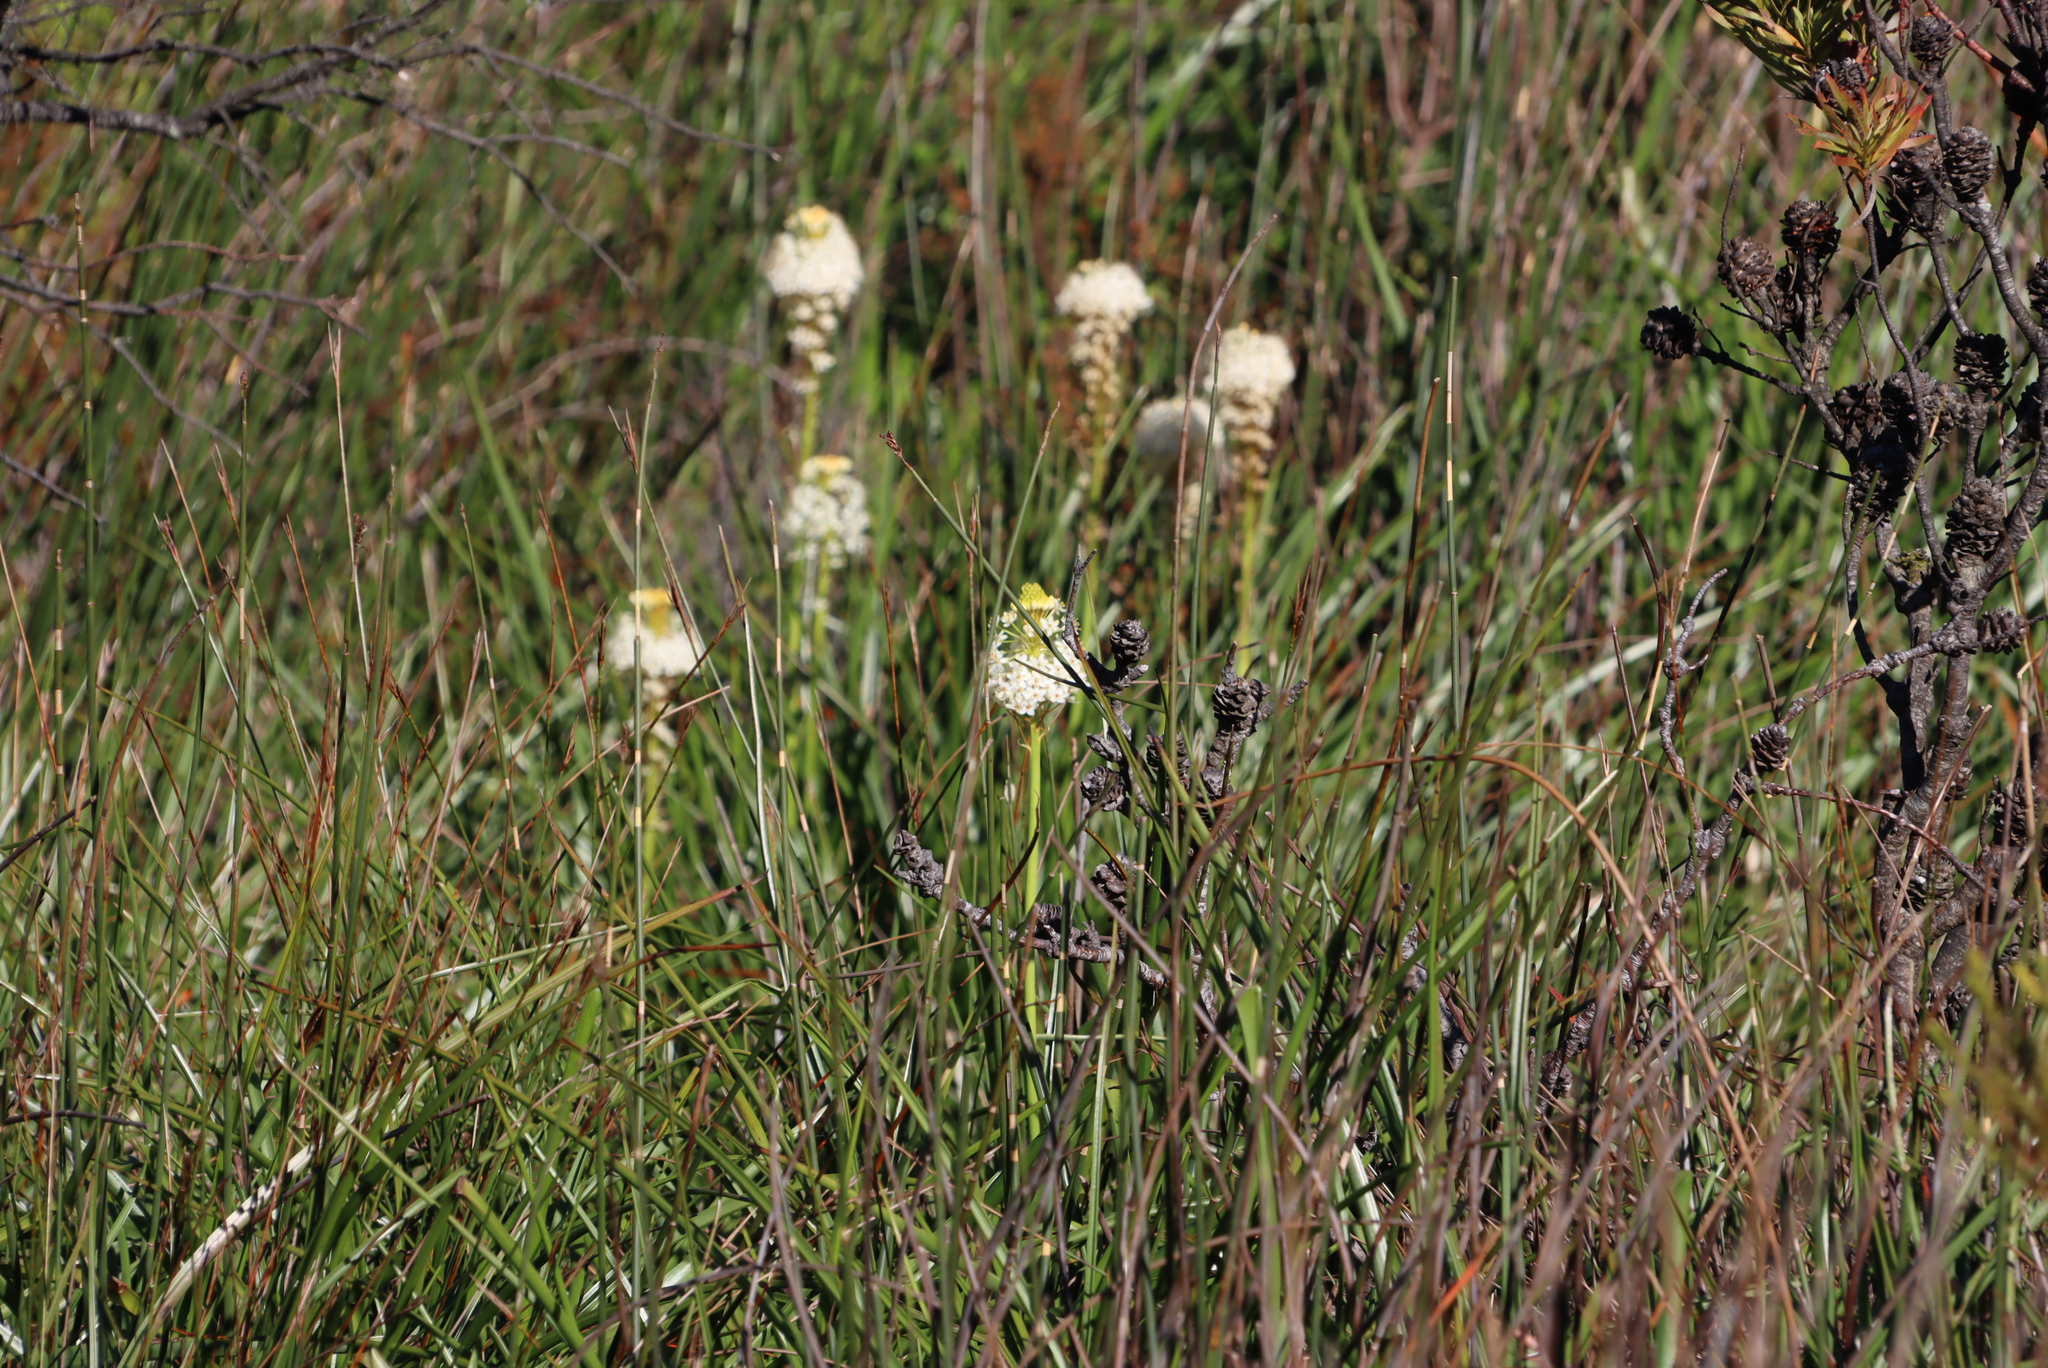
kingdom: Plantae
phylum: Tracheophyta
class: Liliopsida
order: Asparagales
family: Asphodelaceae
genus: Bulbinella
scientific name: Bulbinella nutans
